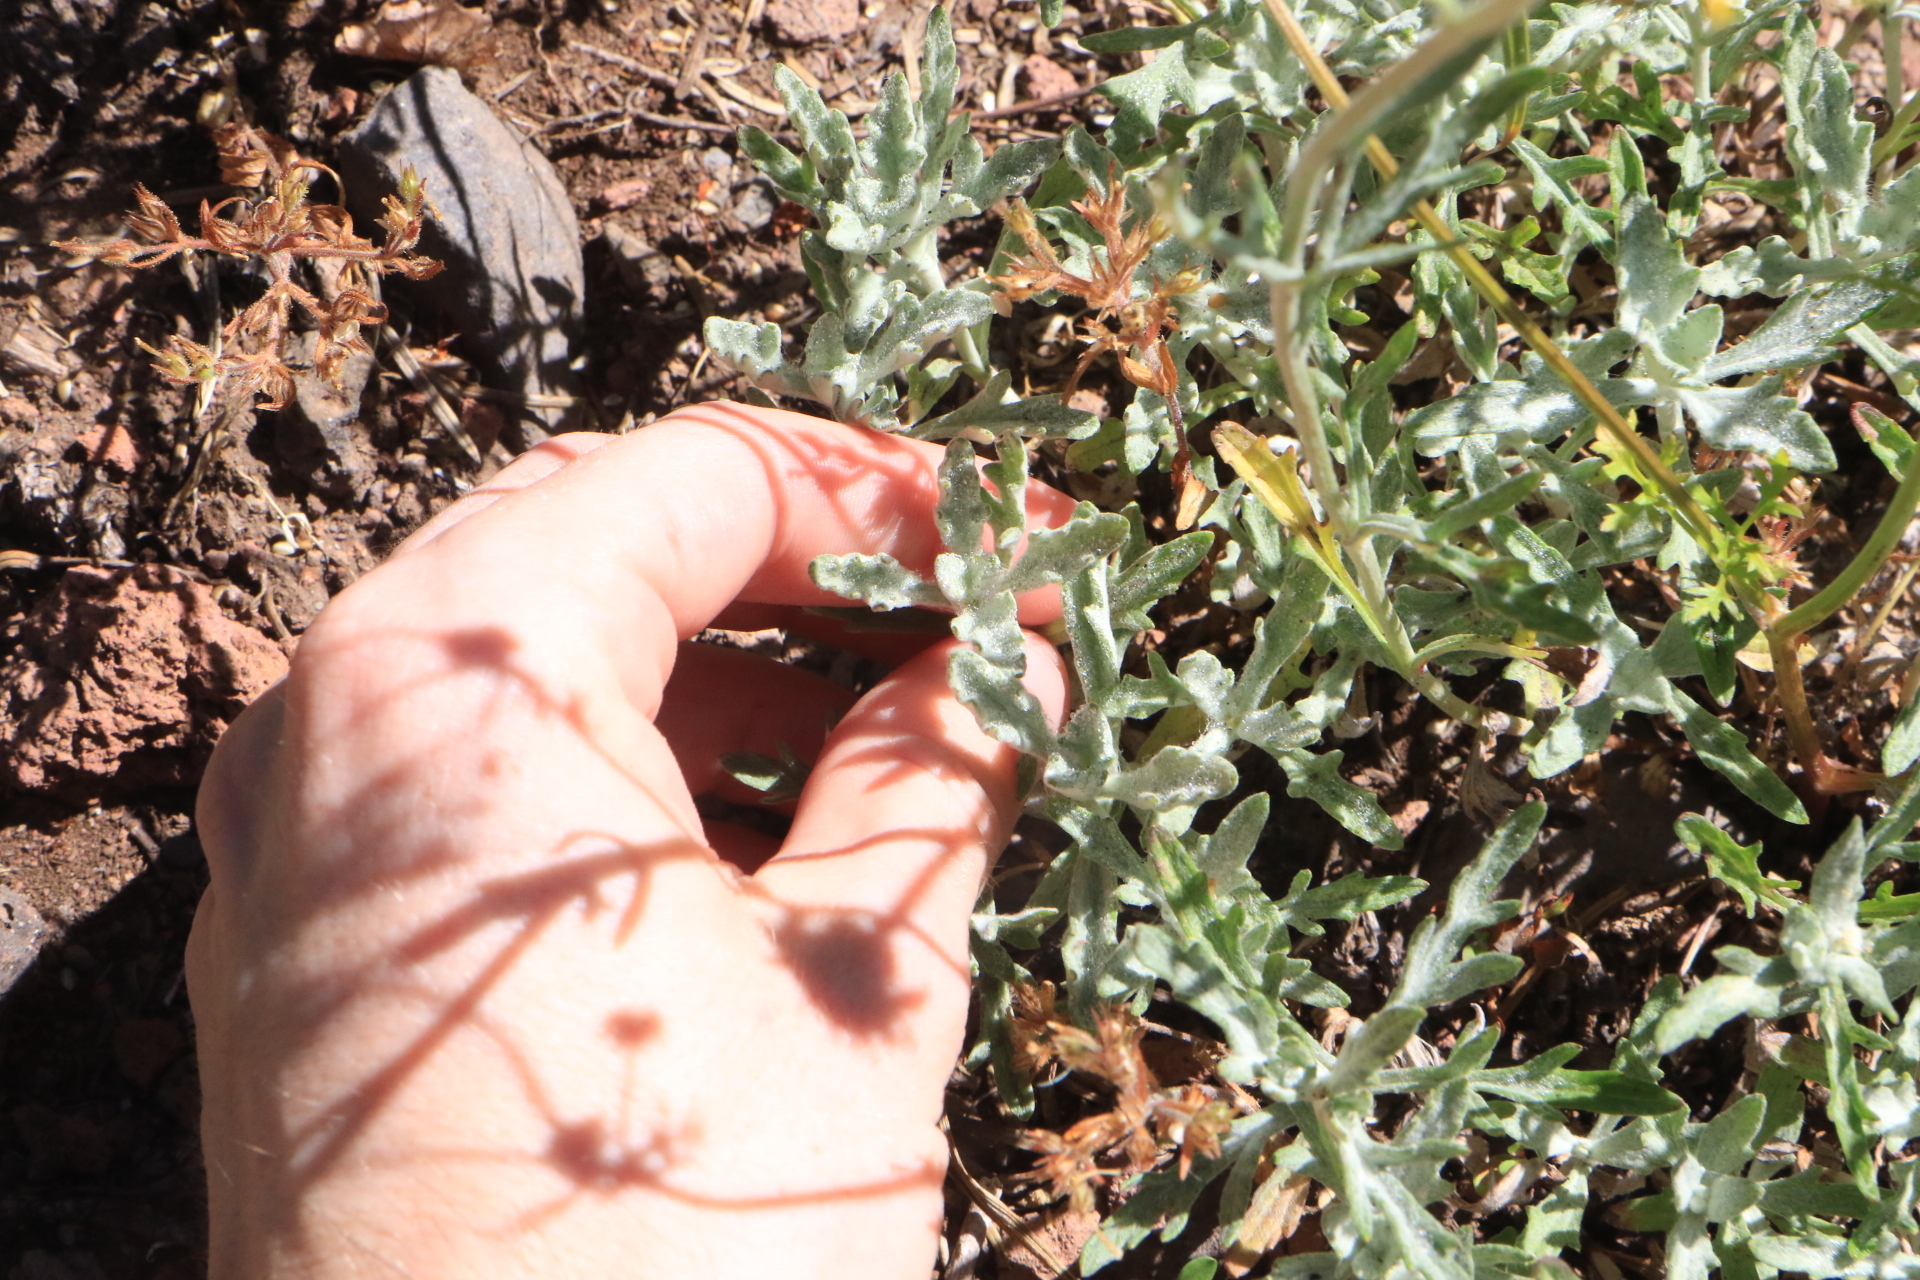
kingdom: Plantae
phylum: Tracheophyta
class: Magnoliopsida
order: Asterales
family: Asteraceae
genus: Eriophyllum
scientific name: Eriophyllum lanatum
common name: Common woolly-sunflower
